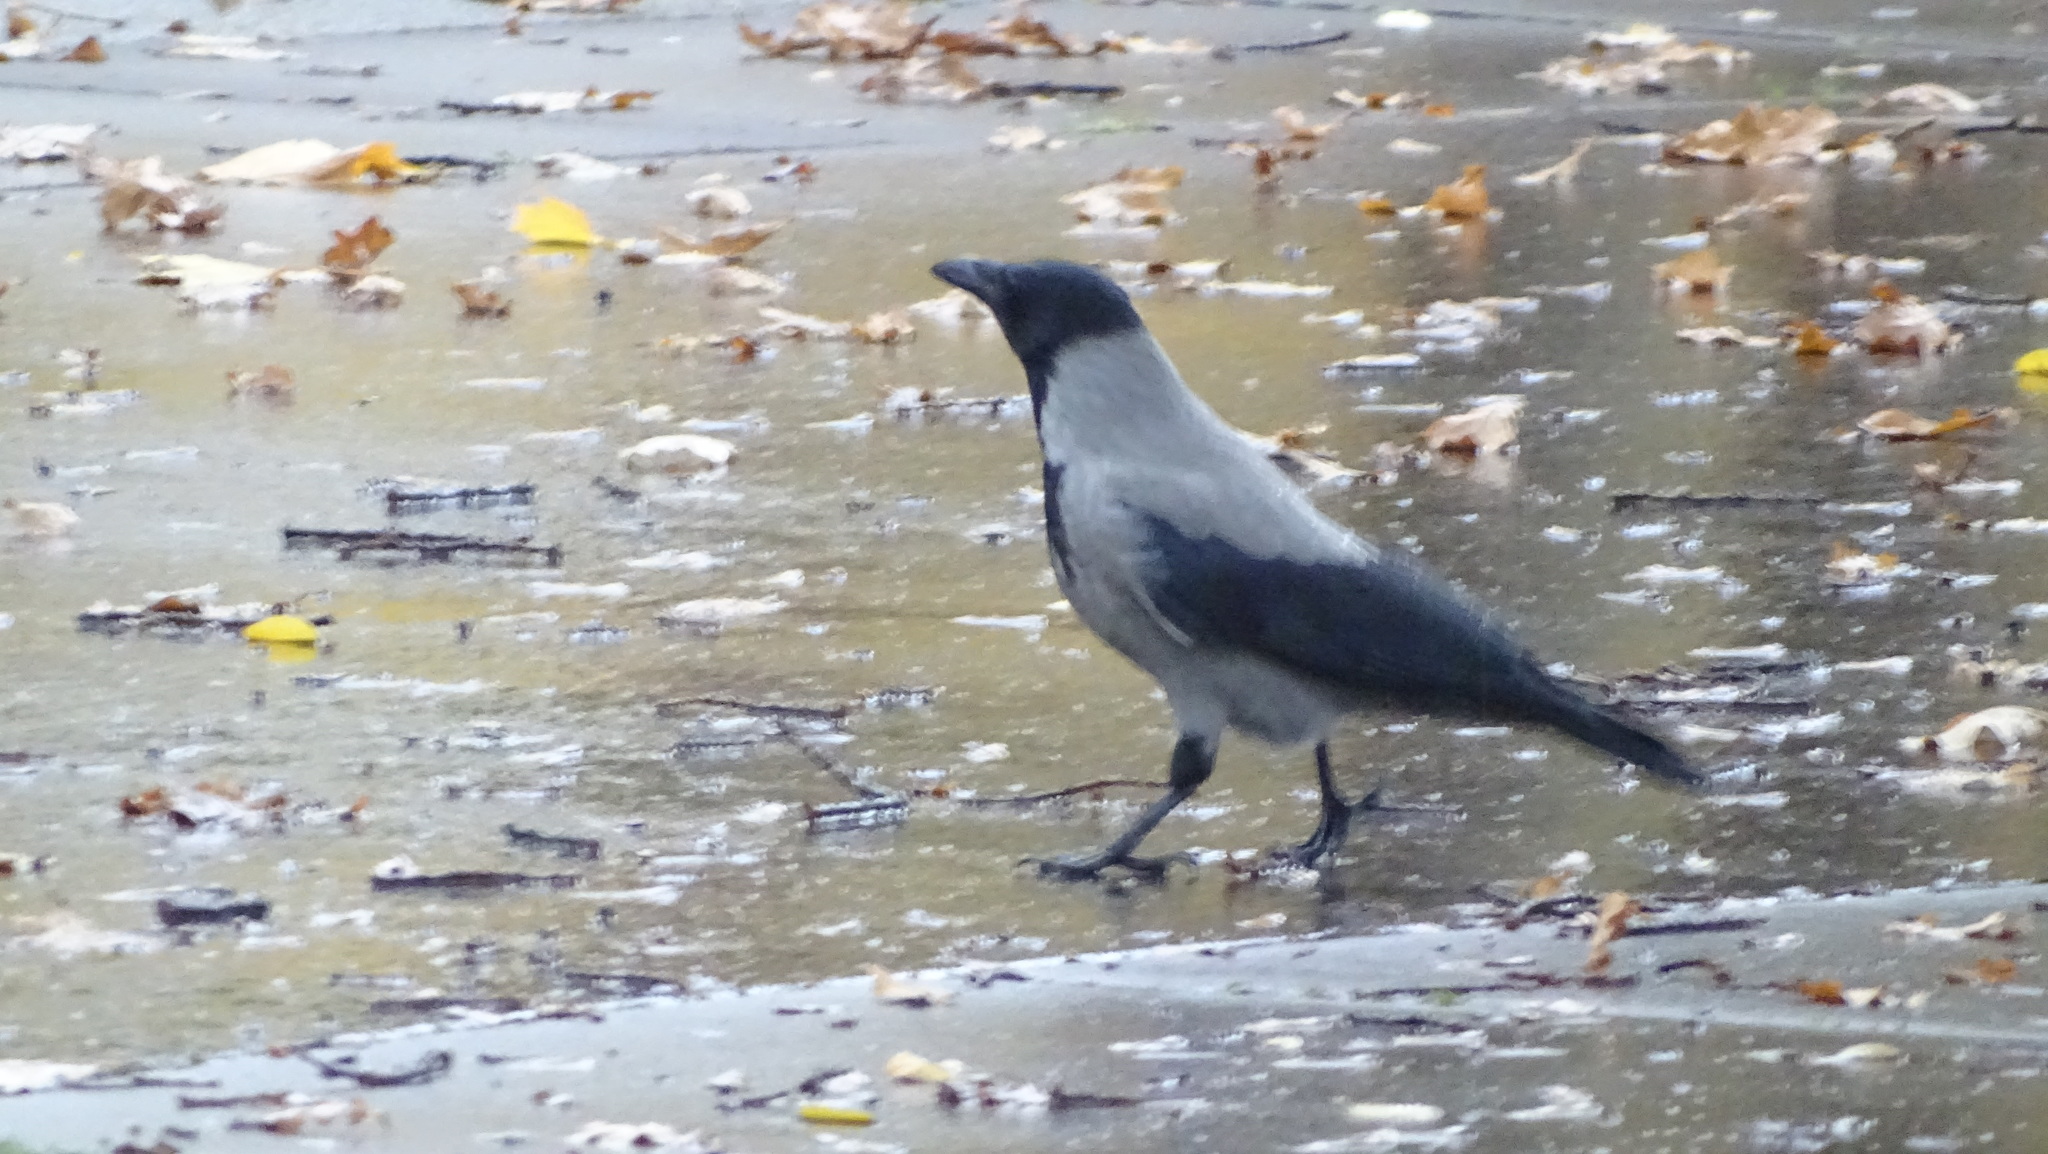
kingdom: Animalia
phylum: Chordata
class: Aves
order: Passeriformes
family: Corvidae
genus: Corvus
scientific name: Corvus cornix
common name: Hooded crow
